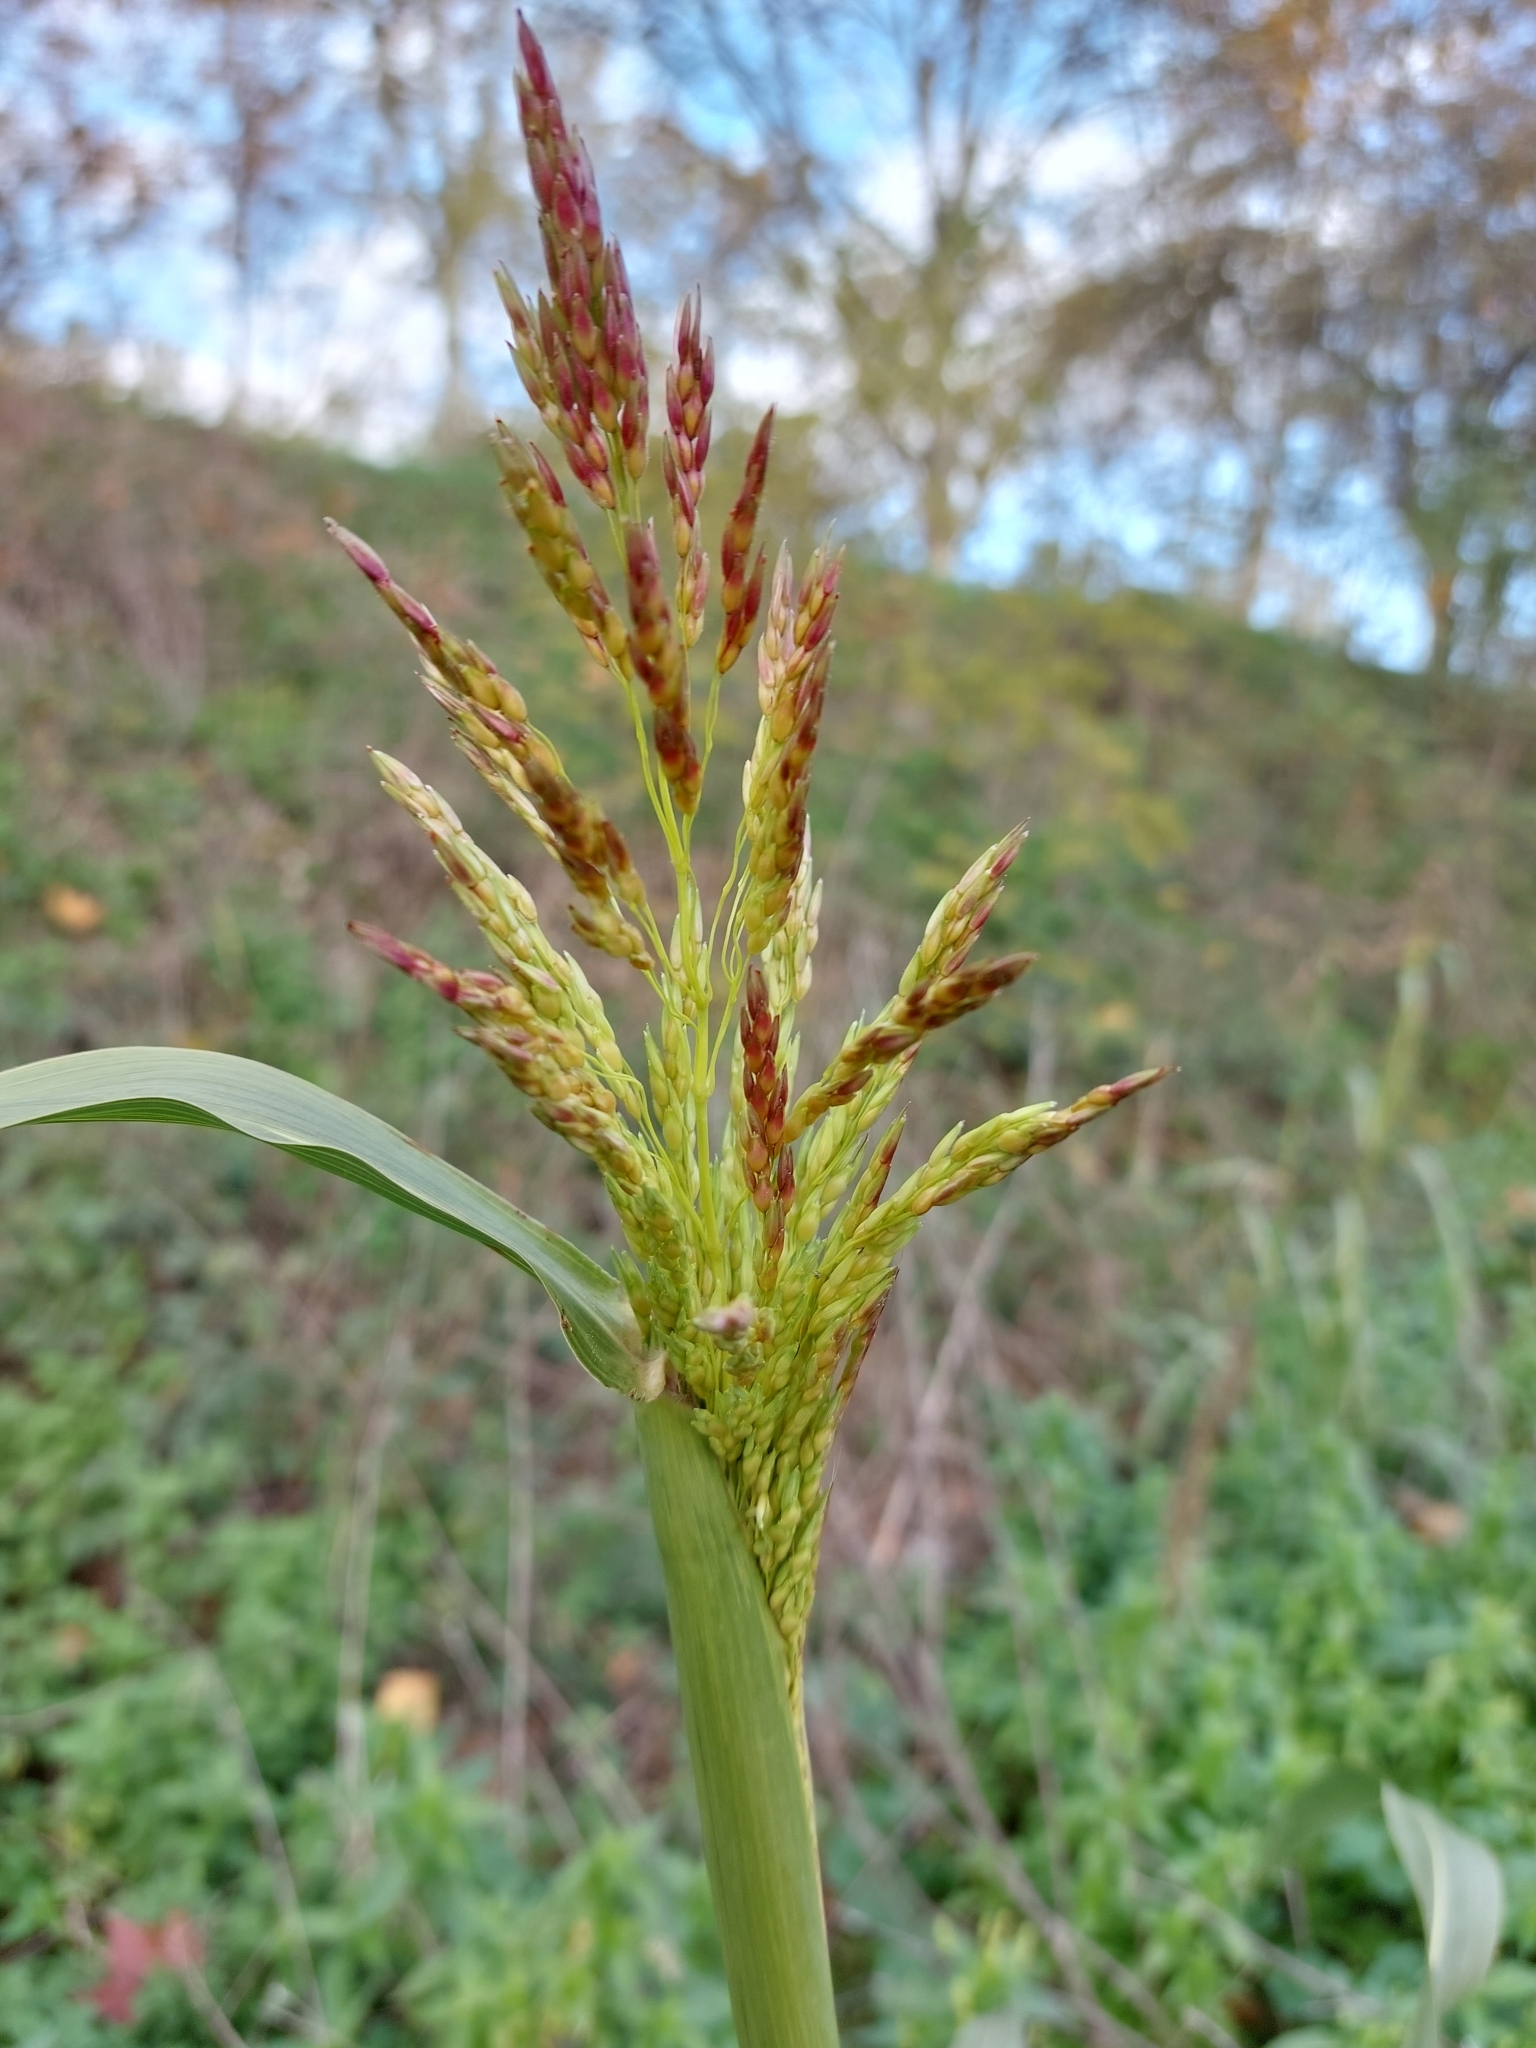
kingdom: Plantae
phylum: Tracheophyta
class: Liliopsida
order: Poales
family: Poaceae
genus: Sorghum
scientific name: Sorghum halepense
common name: Johnson-grass
